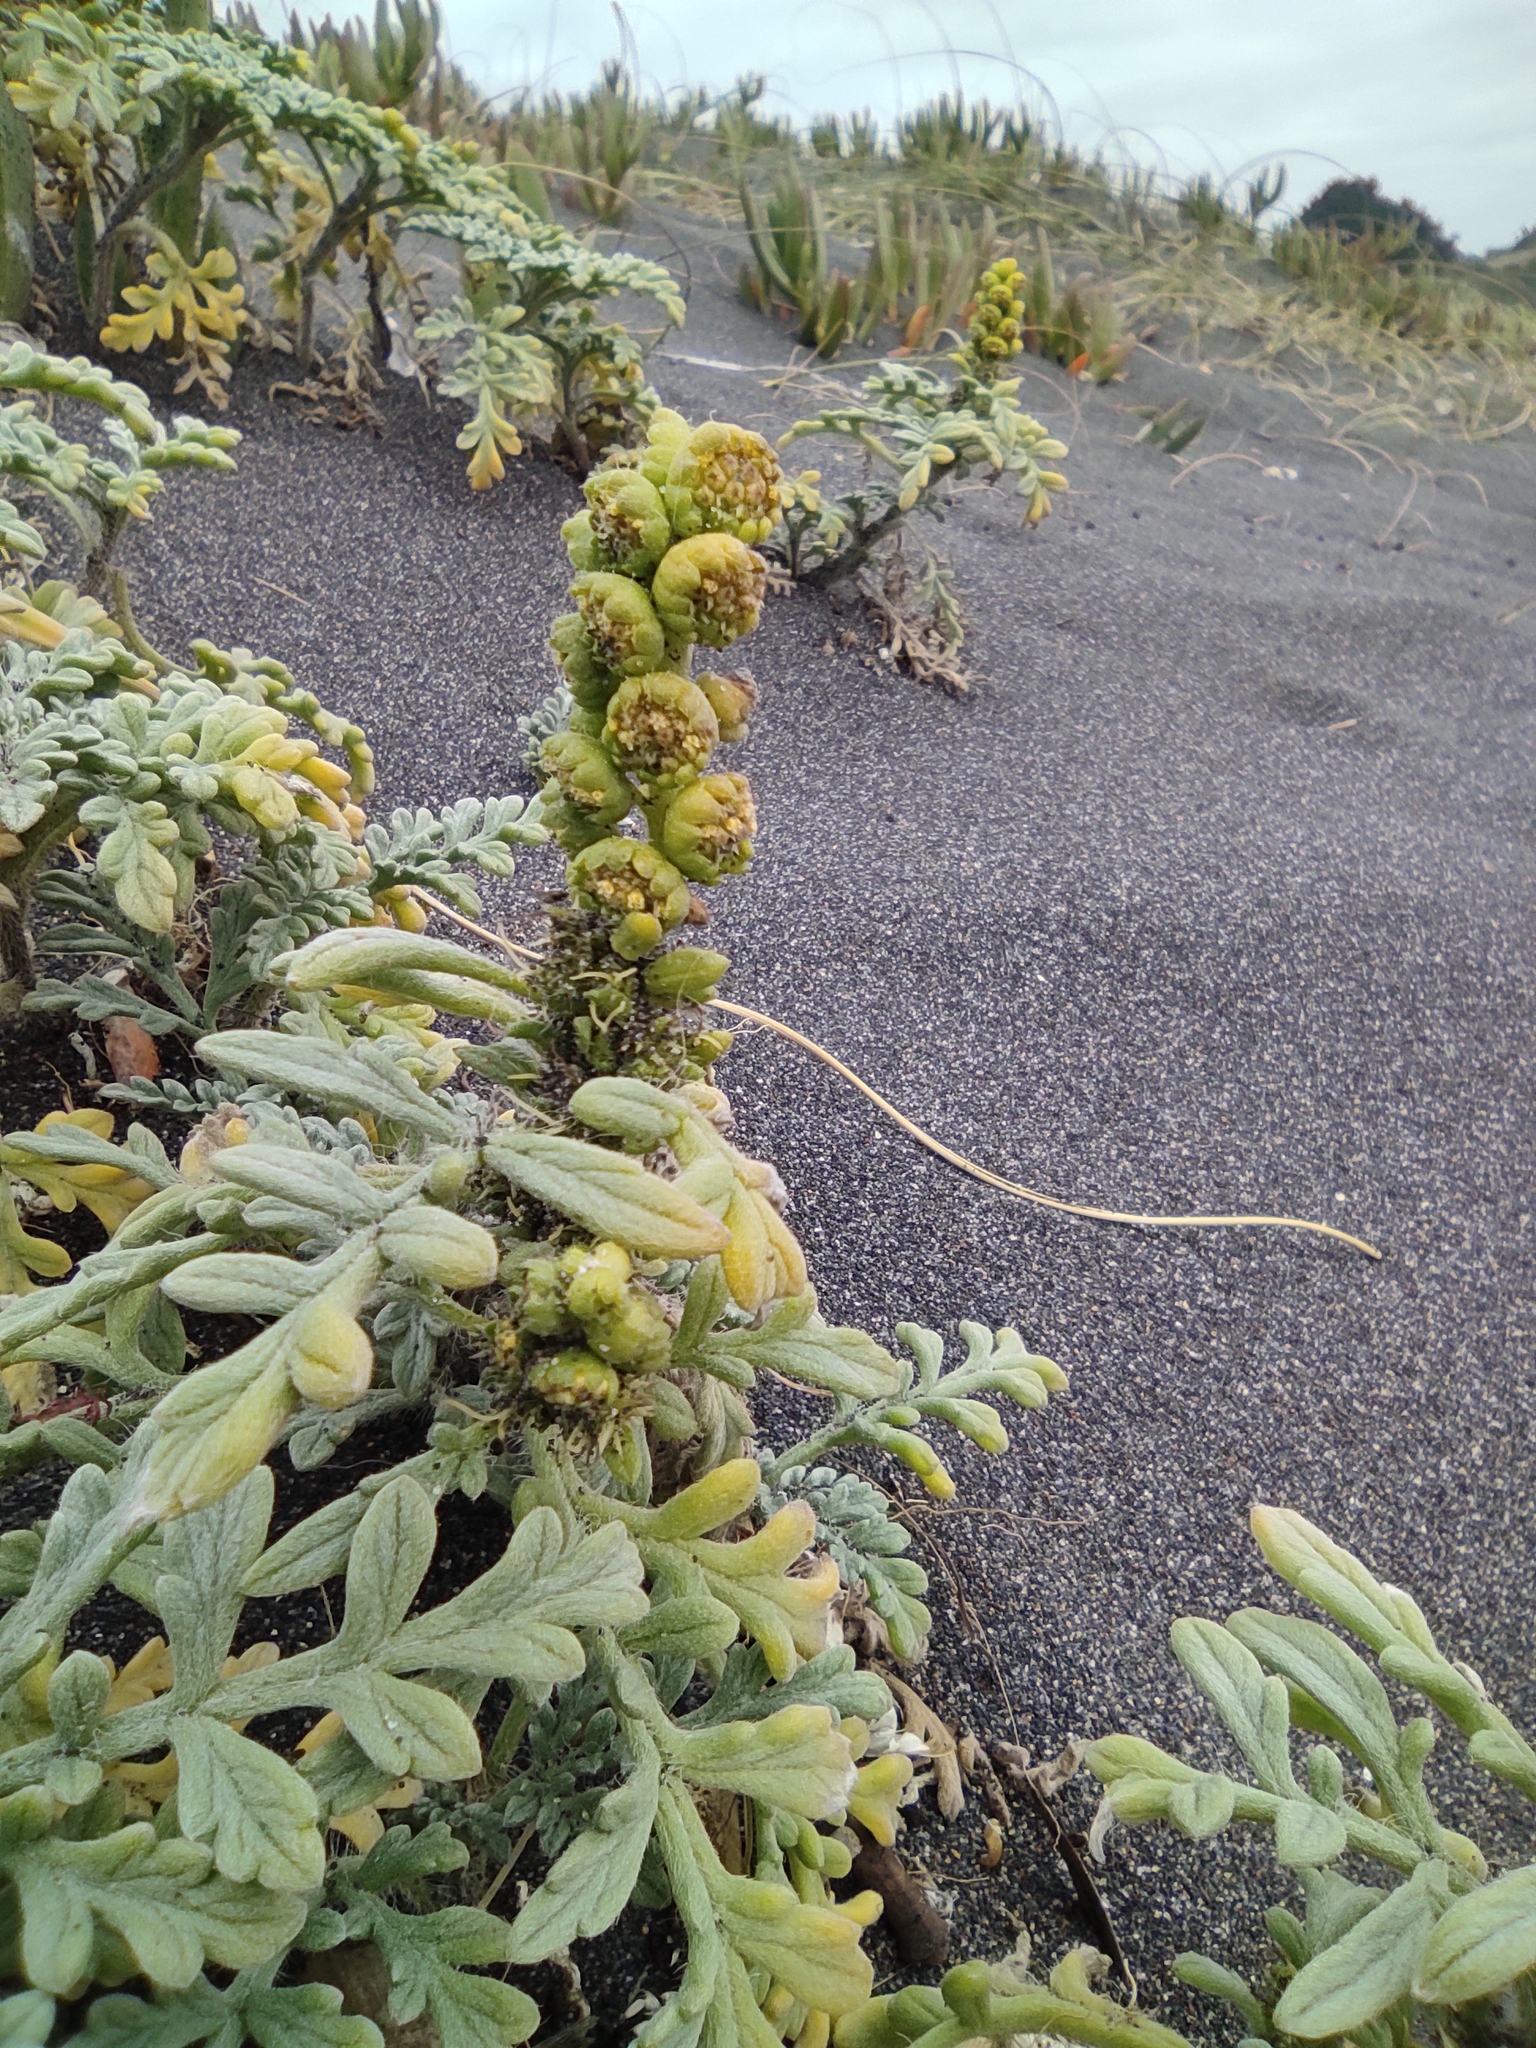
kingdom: Plantae
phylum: Tracheophyta
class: Magnoliopsida
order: Asterales
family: Asteraceae
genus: Ambrosia
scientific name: Ambrosia chamissonis
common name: Beachbur
